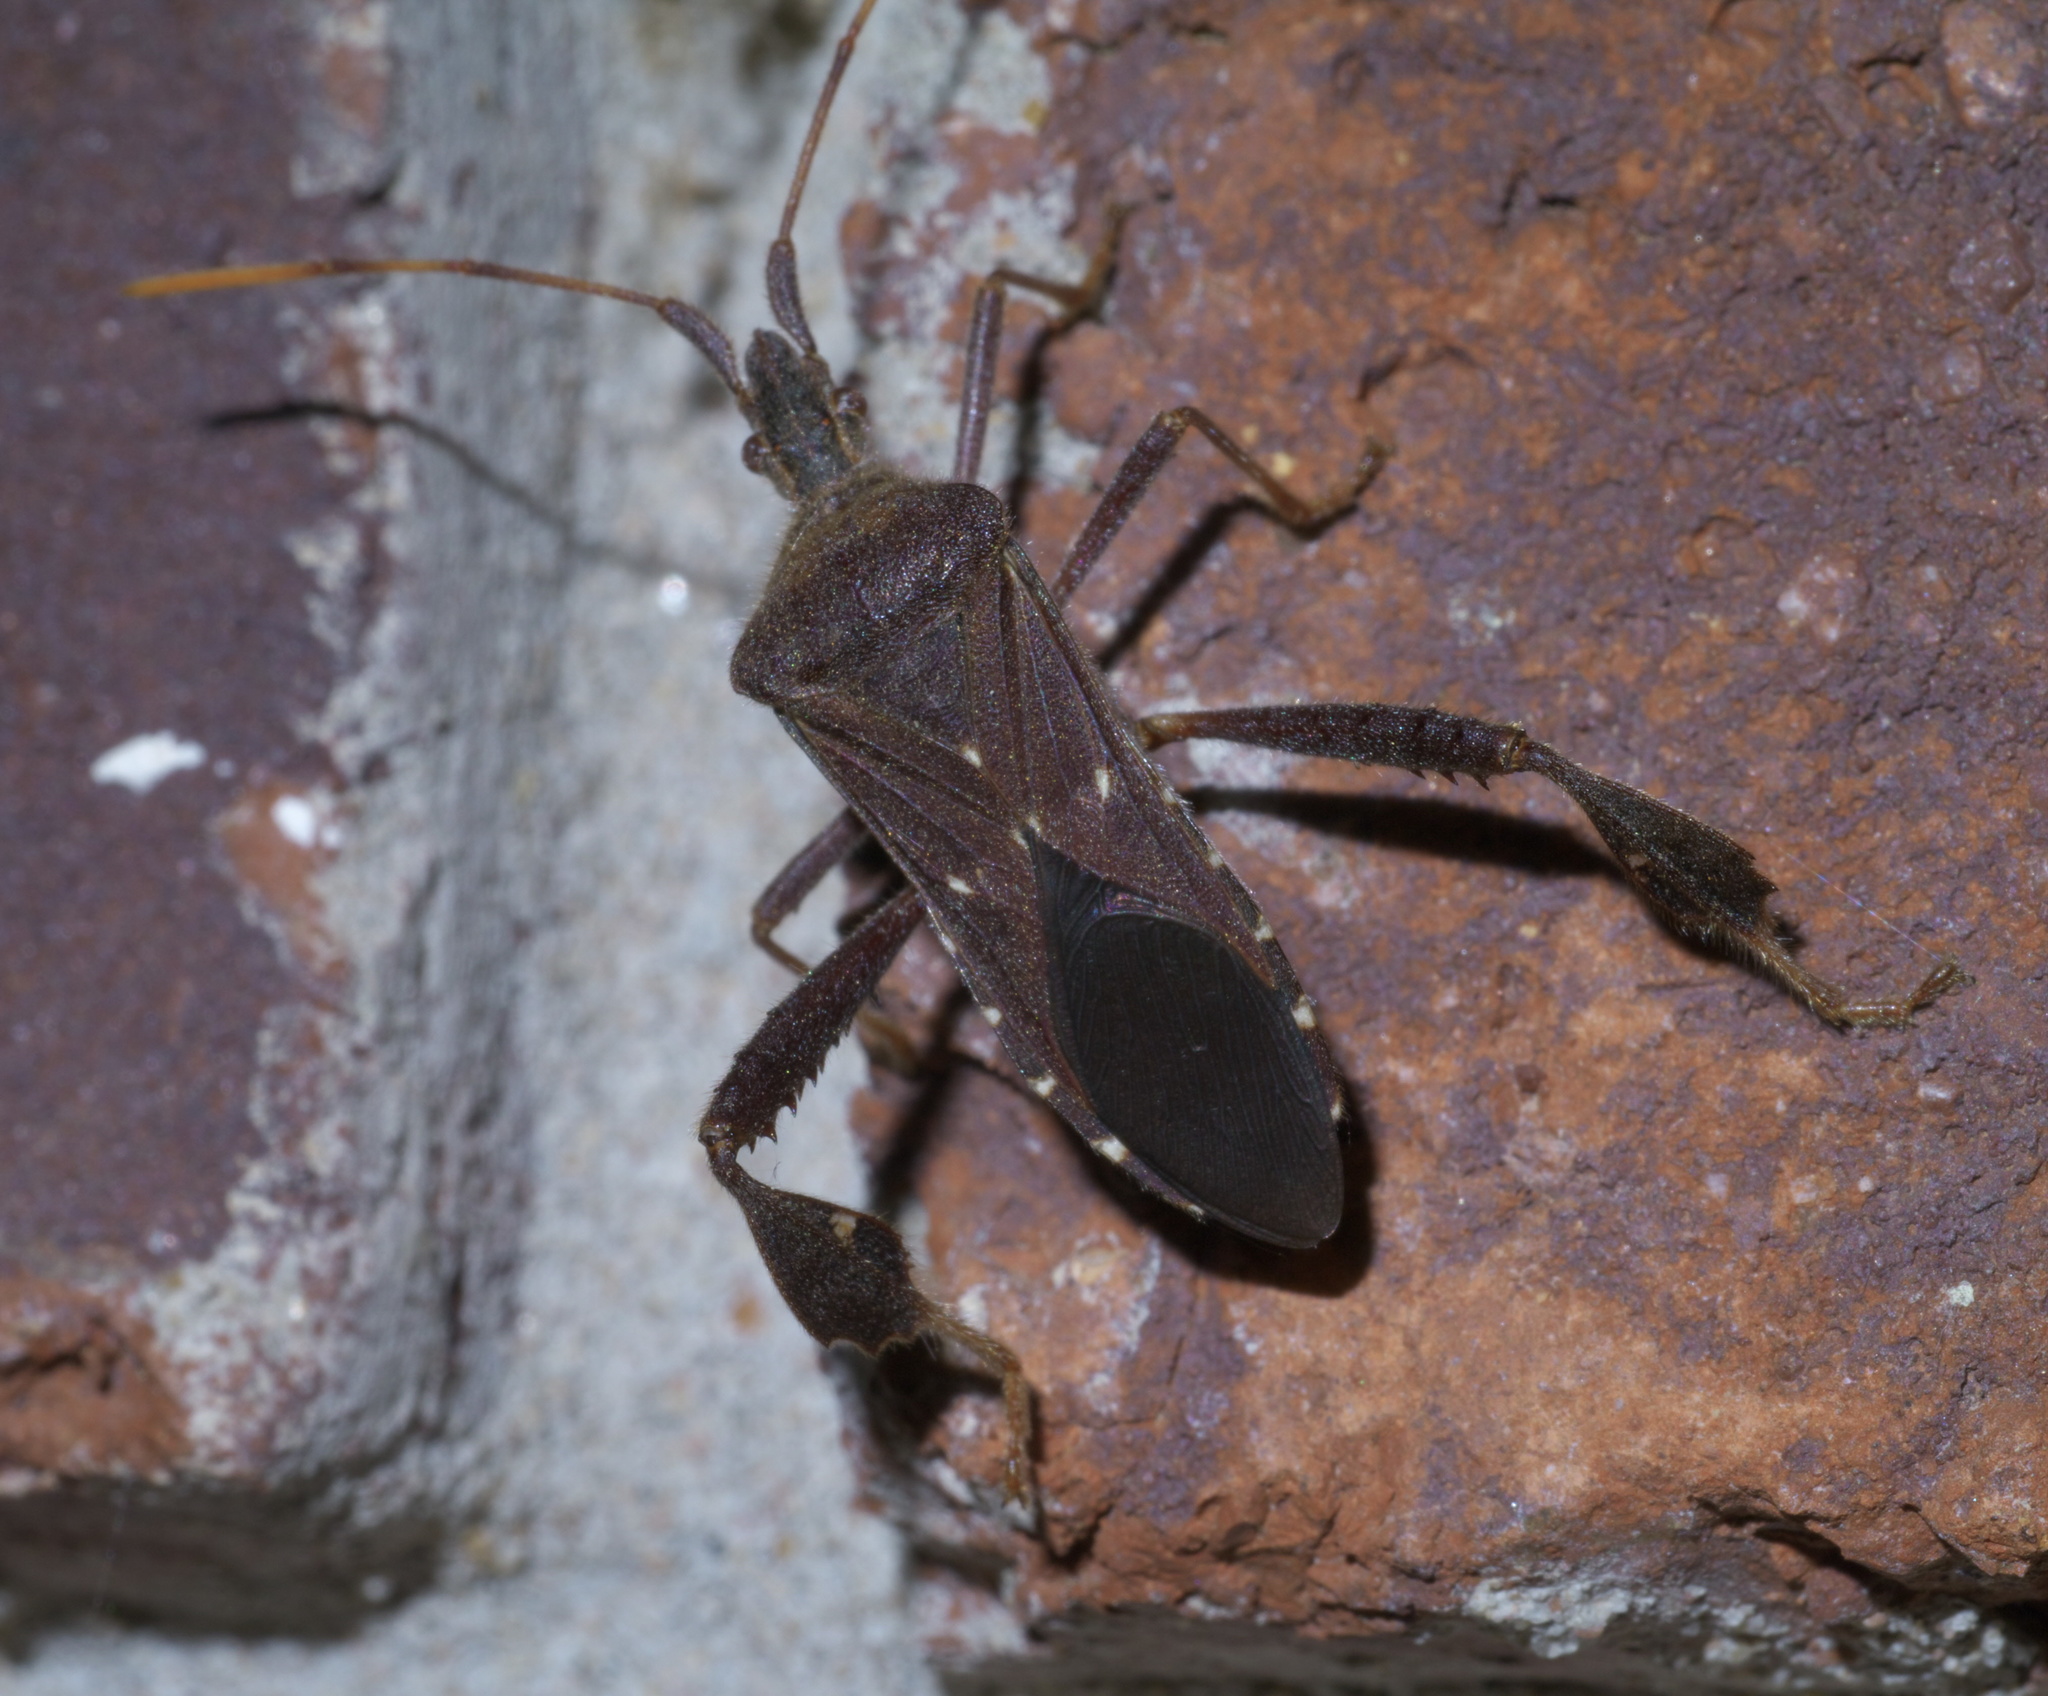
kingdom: Animalia
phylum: Arthropoda
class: Insecta
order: Hemiptera
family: Coreidae
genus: Leptoglossus
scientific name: Leptoglossus oppositus
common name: Northern leaf-footed bug
